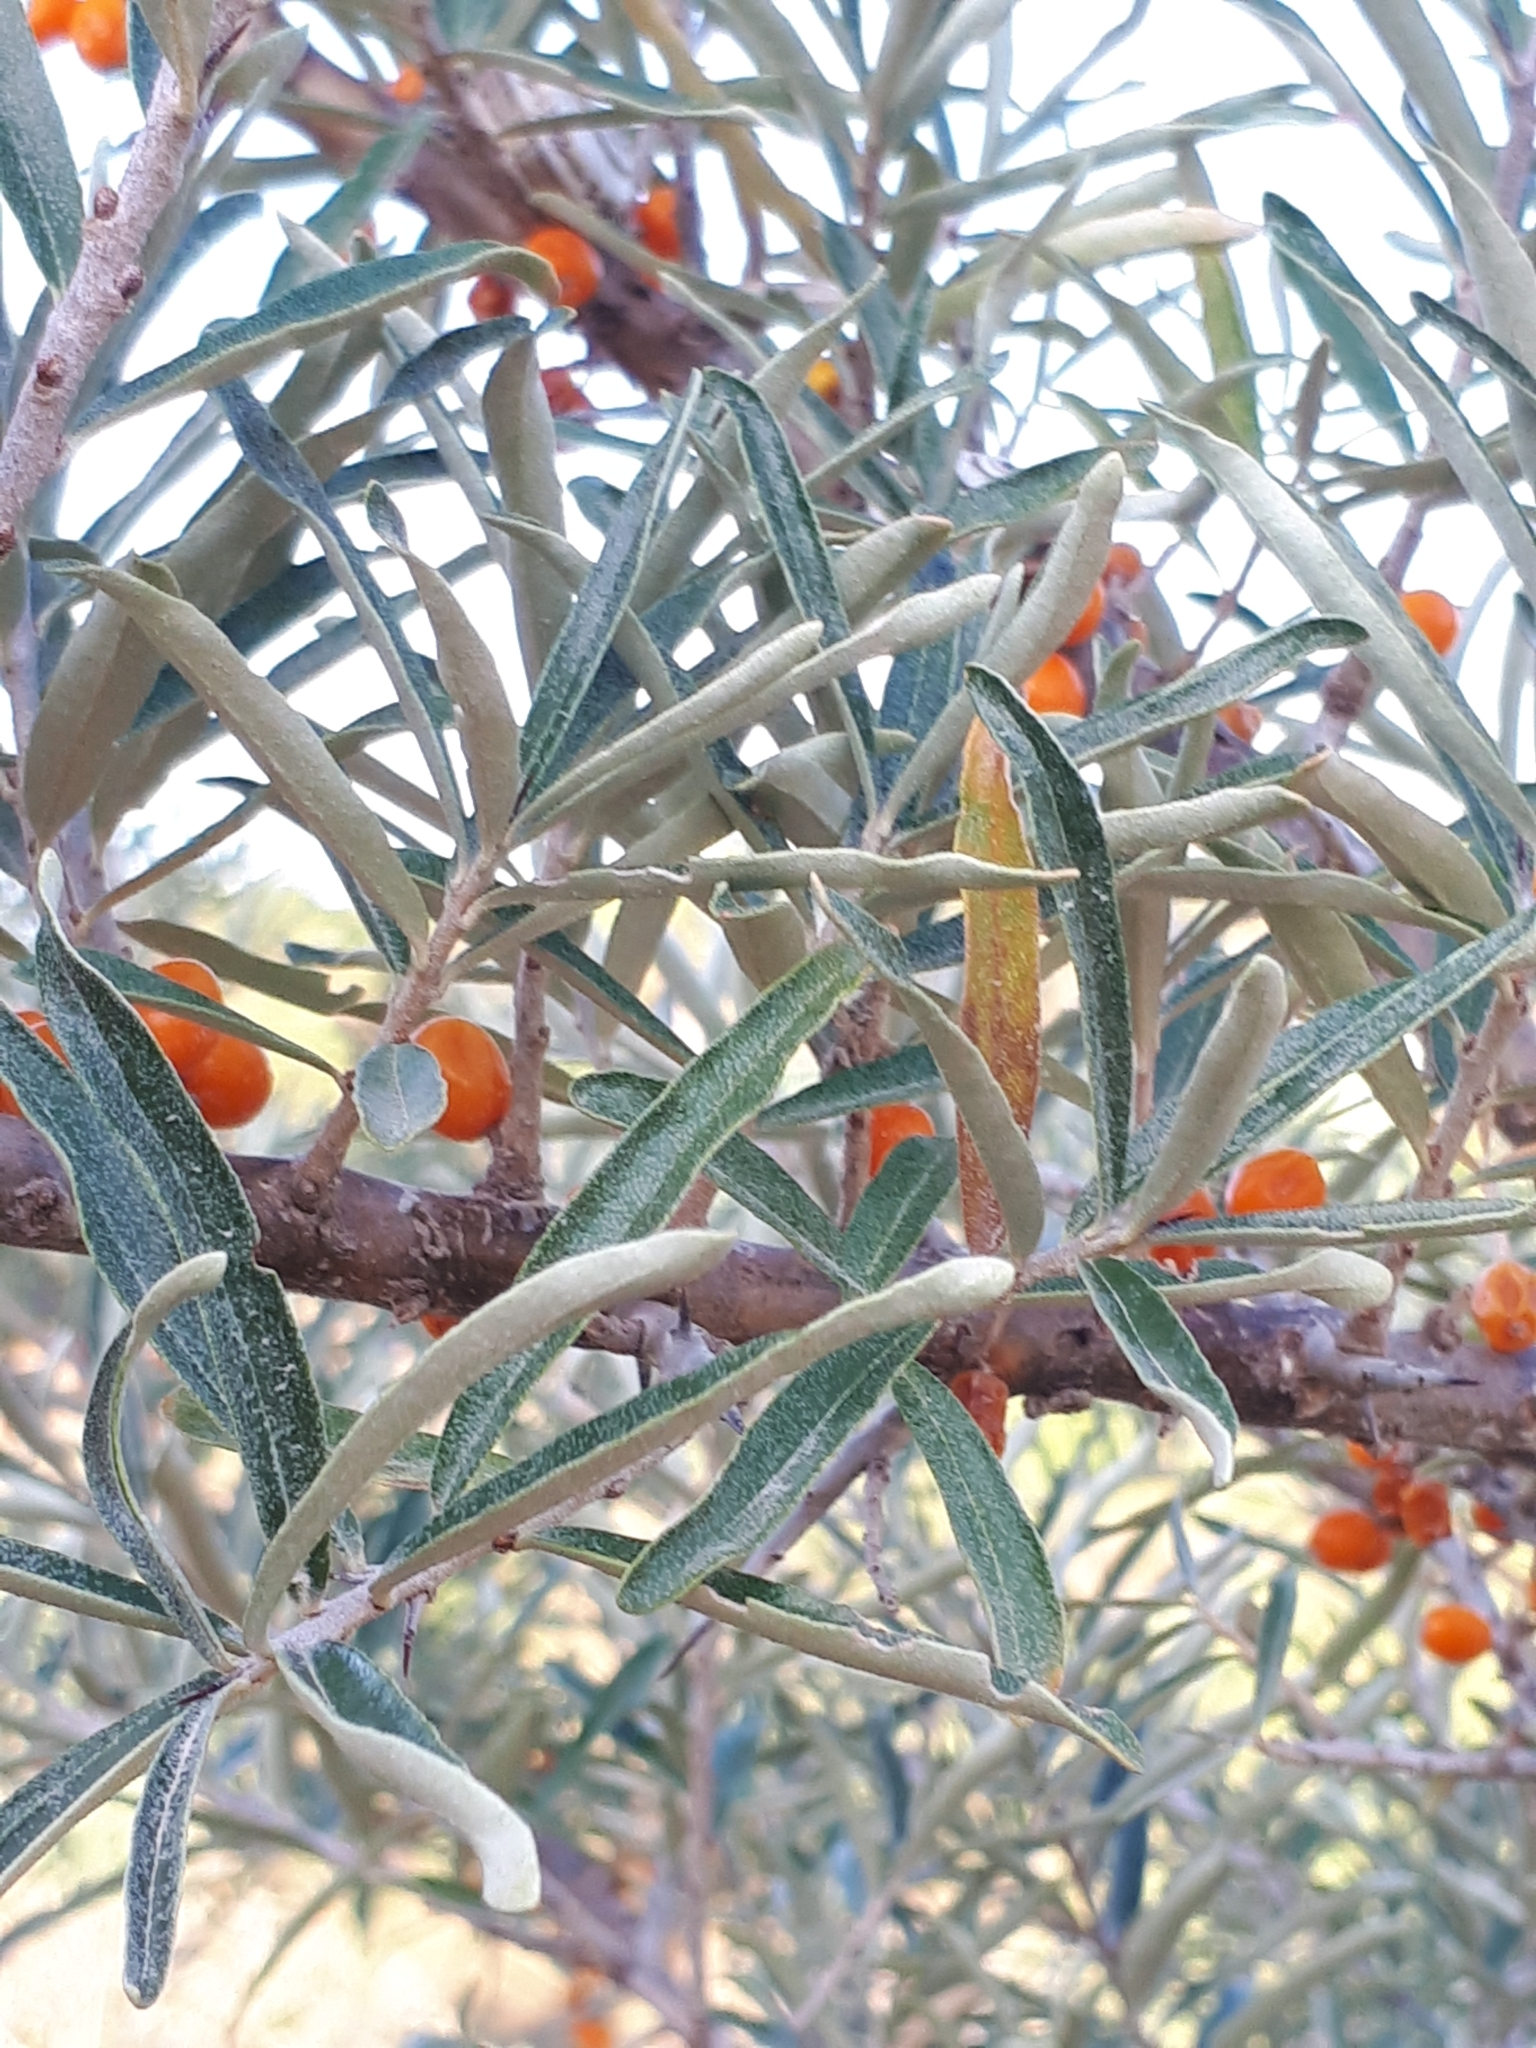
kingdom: Plantae
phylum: Tracheophyta
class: Magnoliopsida
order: Rosales
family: Elaeagnaceae
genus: Hippophae
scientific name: Hippophae rhamnoides
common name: Sea-buckthorn
